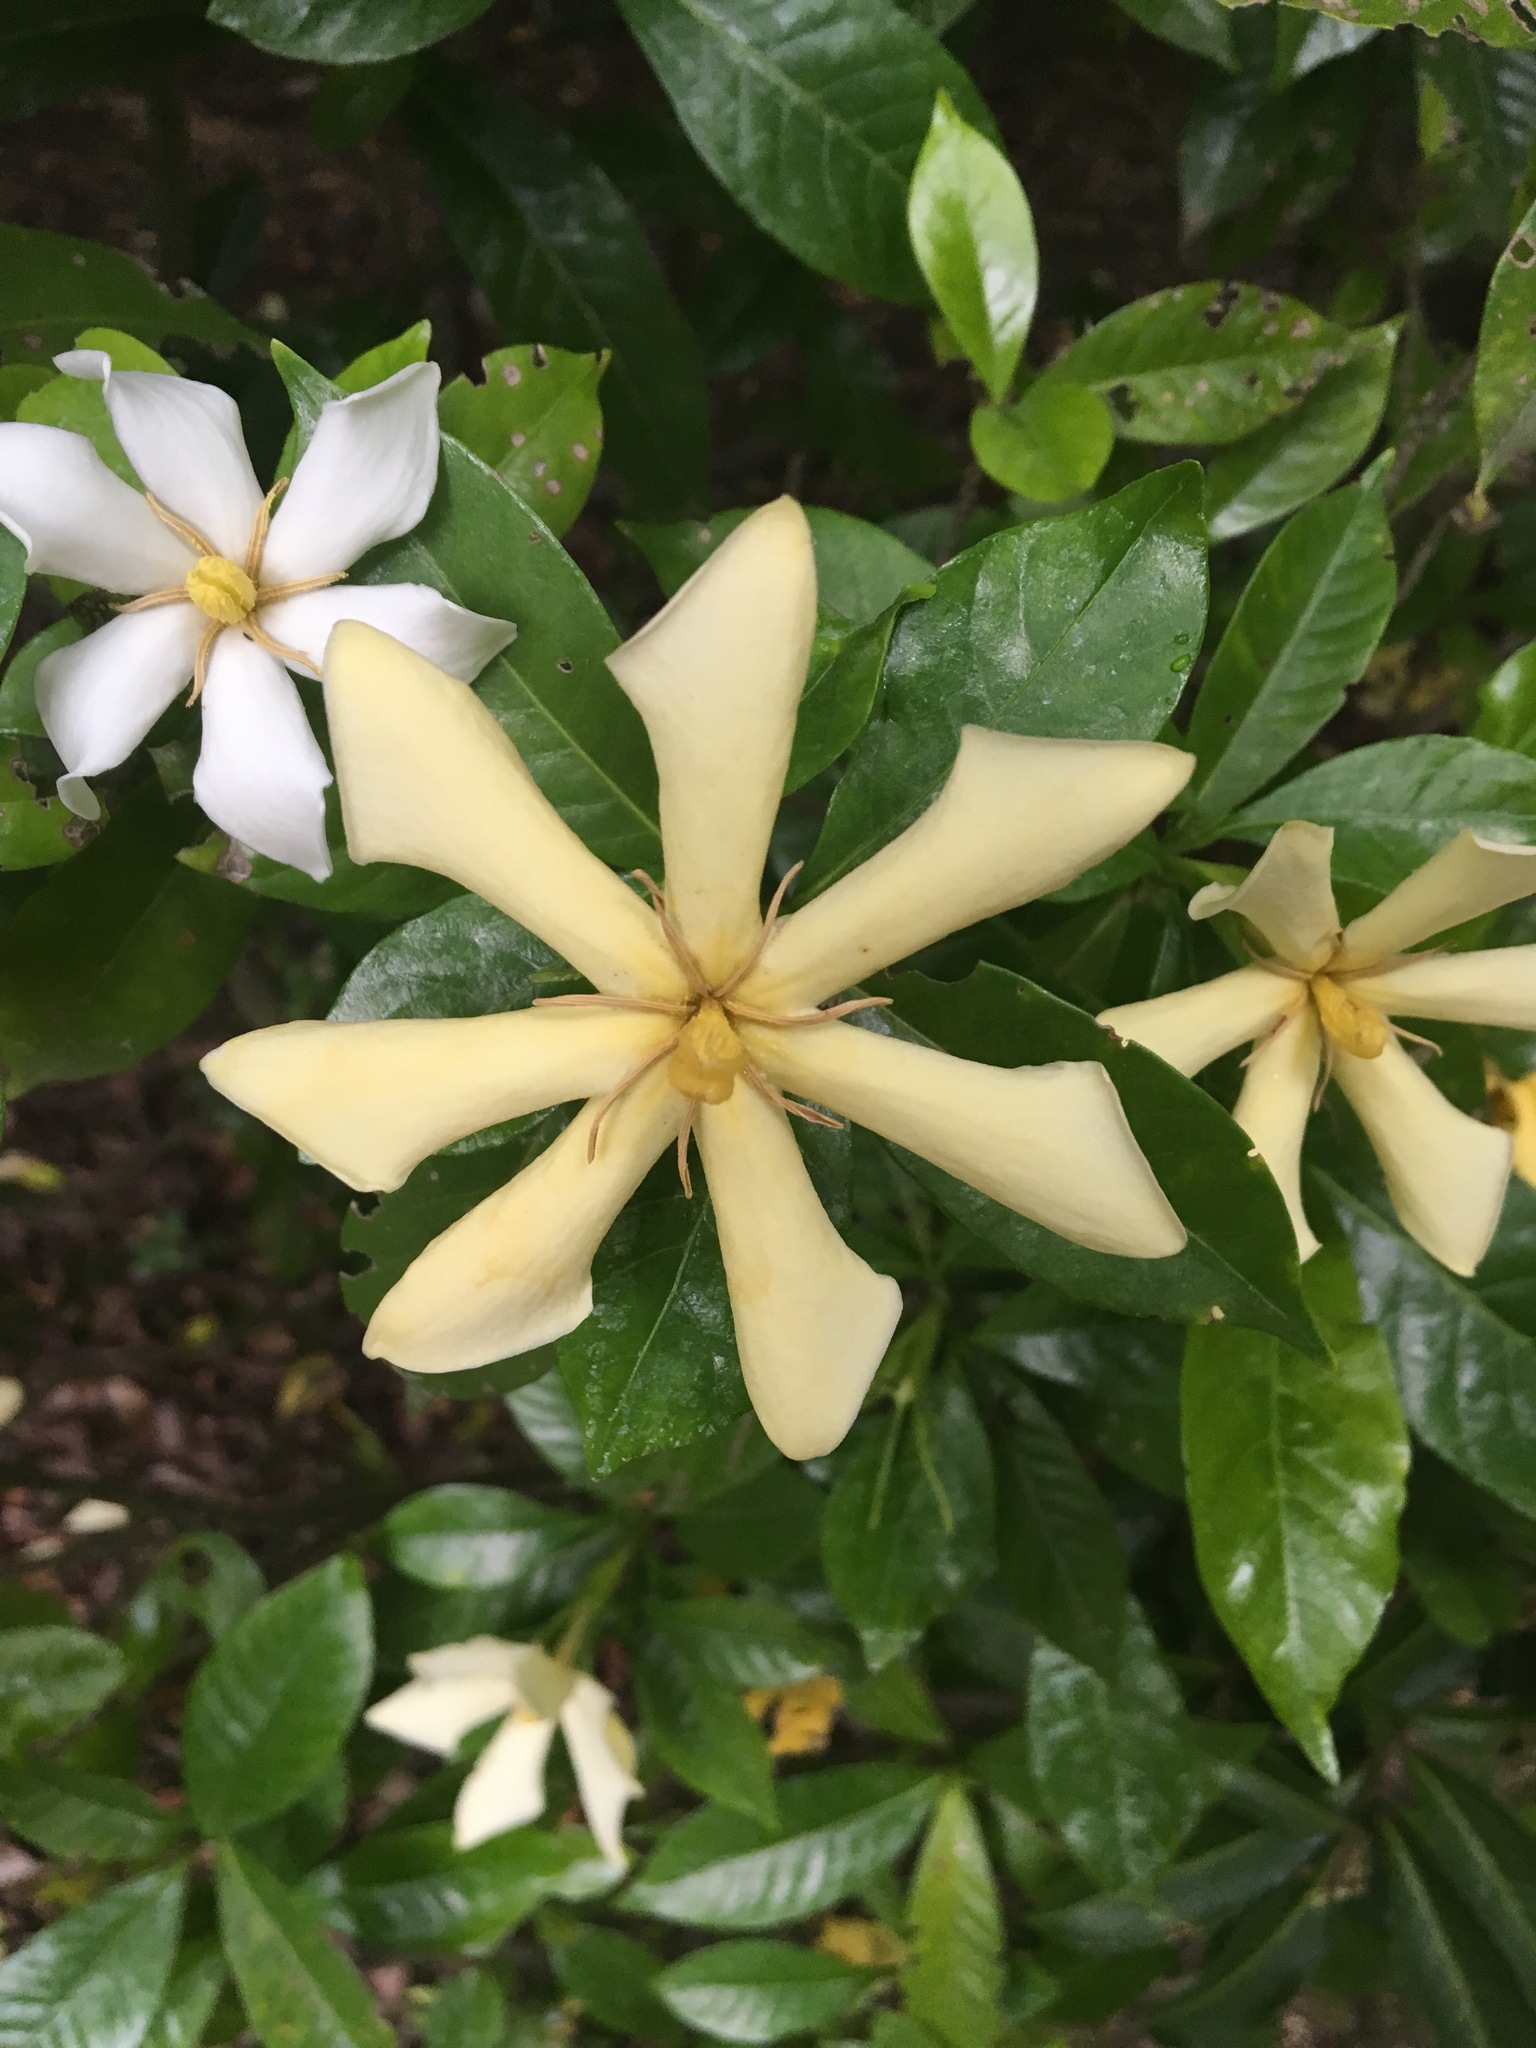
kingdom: Plantae
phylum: Tracheophyta
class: Magnoliopsida
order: Gentianales
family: Rubiaceae
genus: Gardenia
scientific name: Gardenia jasminoides
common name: Cape-jasmine
